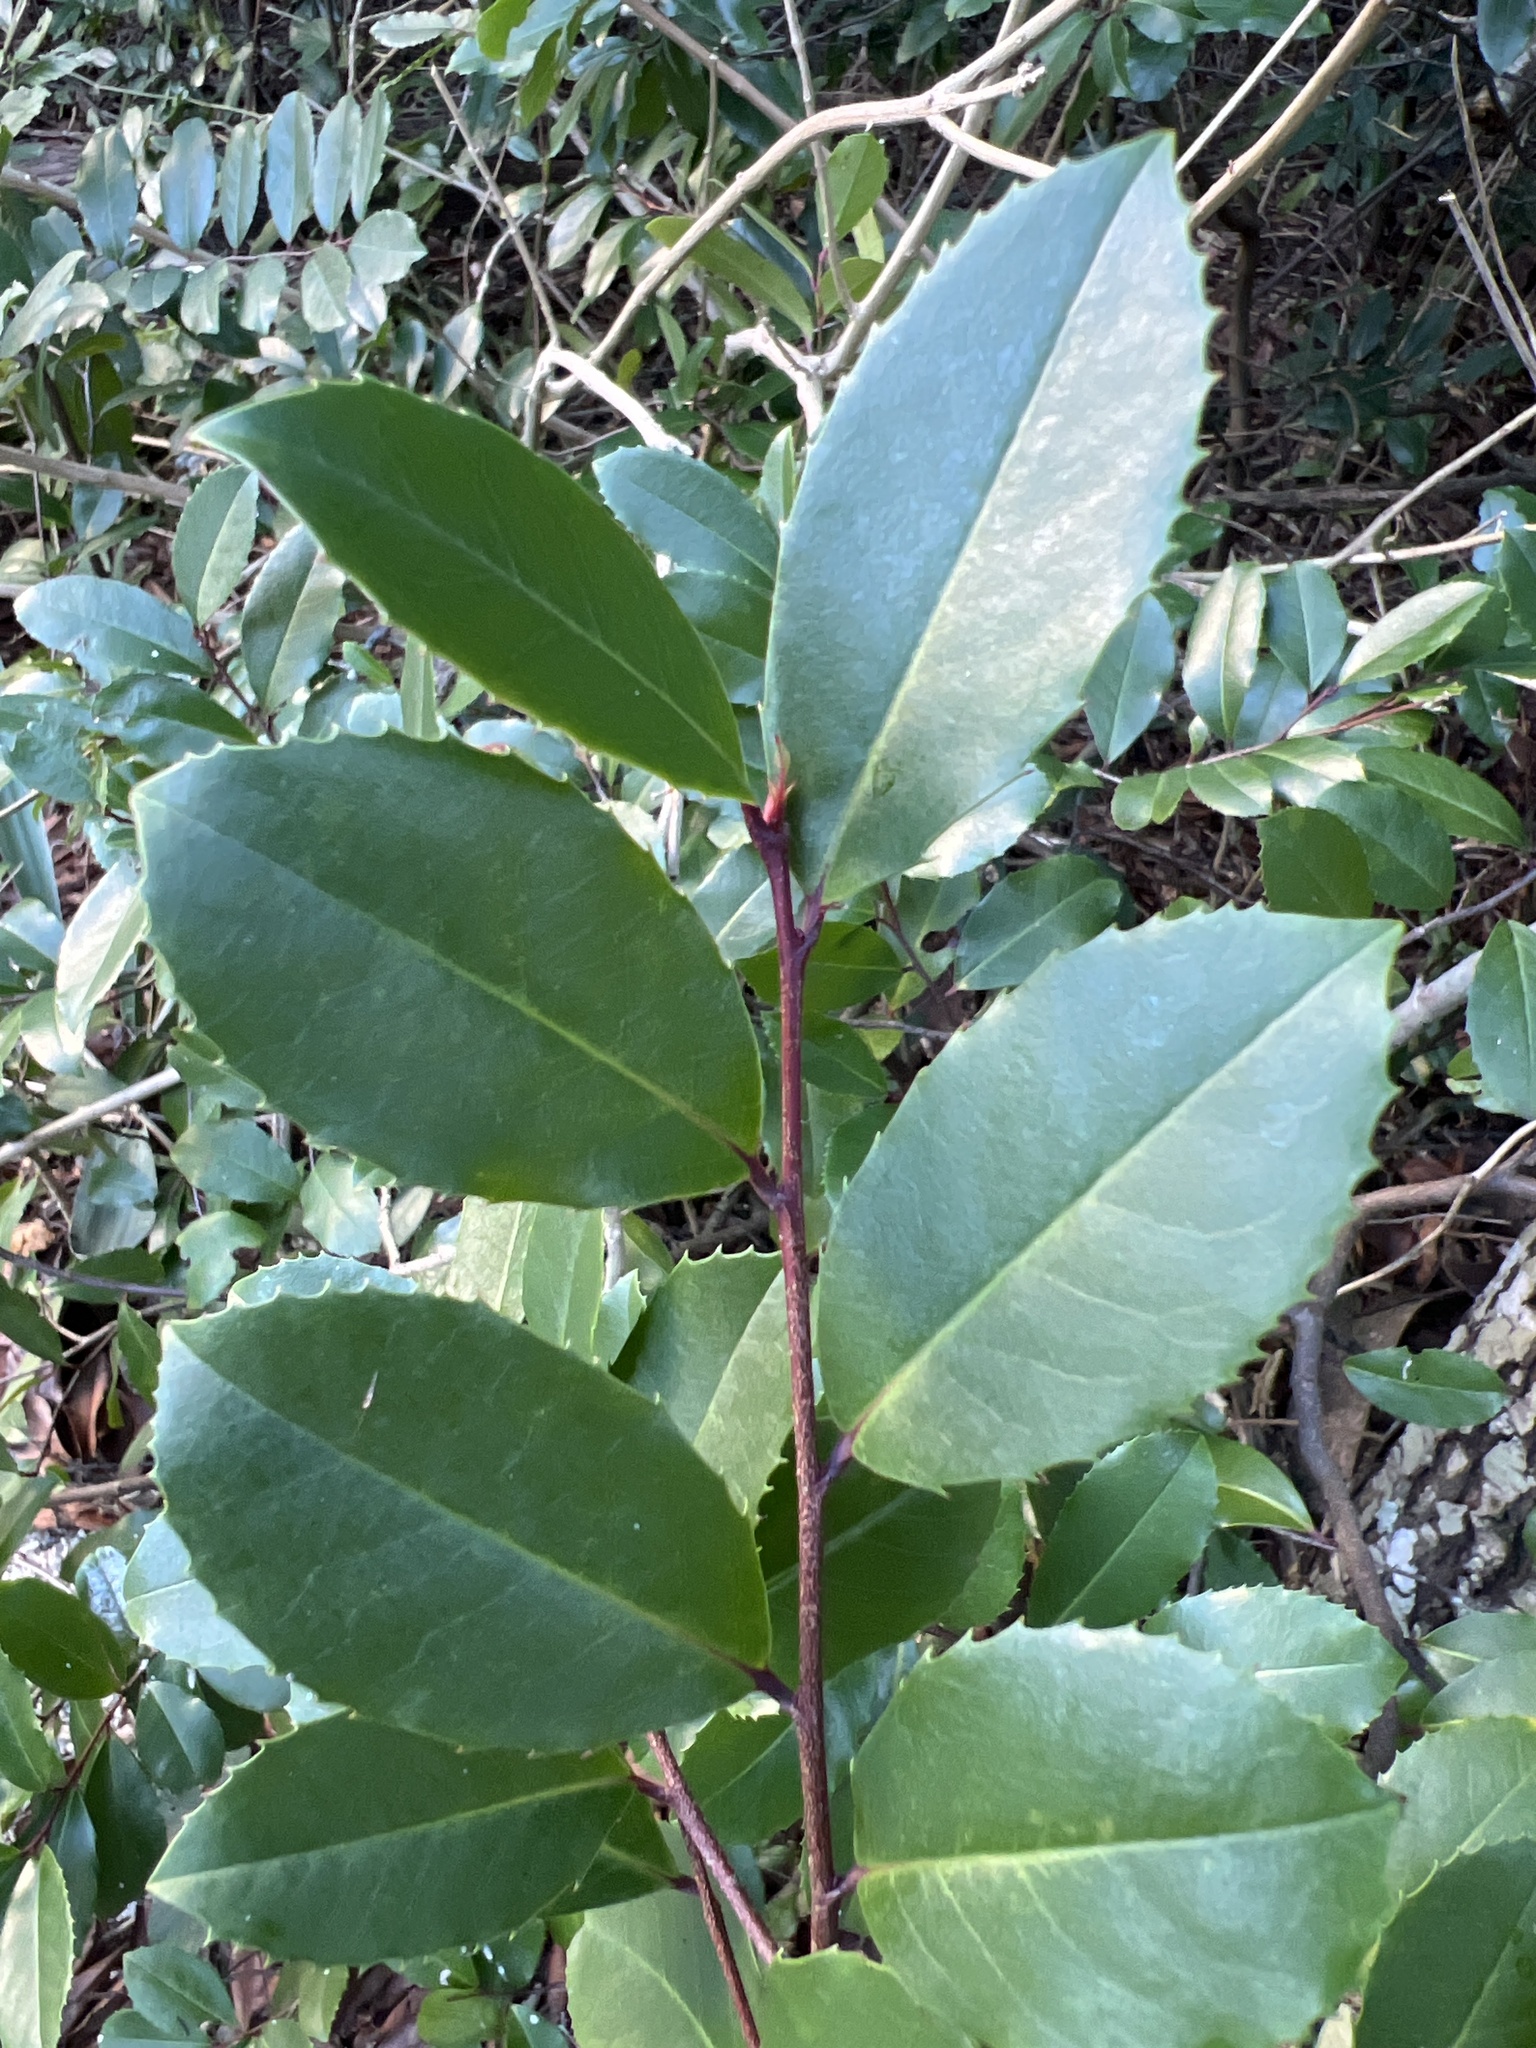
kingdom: Plantae
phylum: Tracheophyta
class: Magnoliopsida
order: Rosales
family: Rosaceae
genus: Prunus
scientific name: Prunus caroliniana
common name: Carolina laurel cherry
